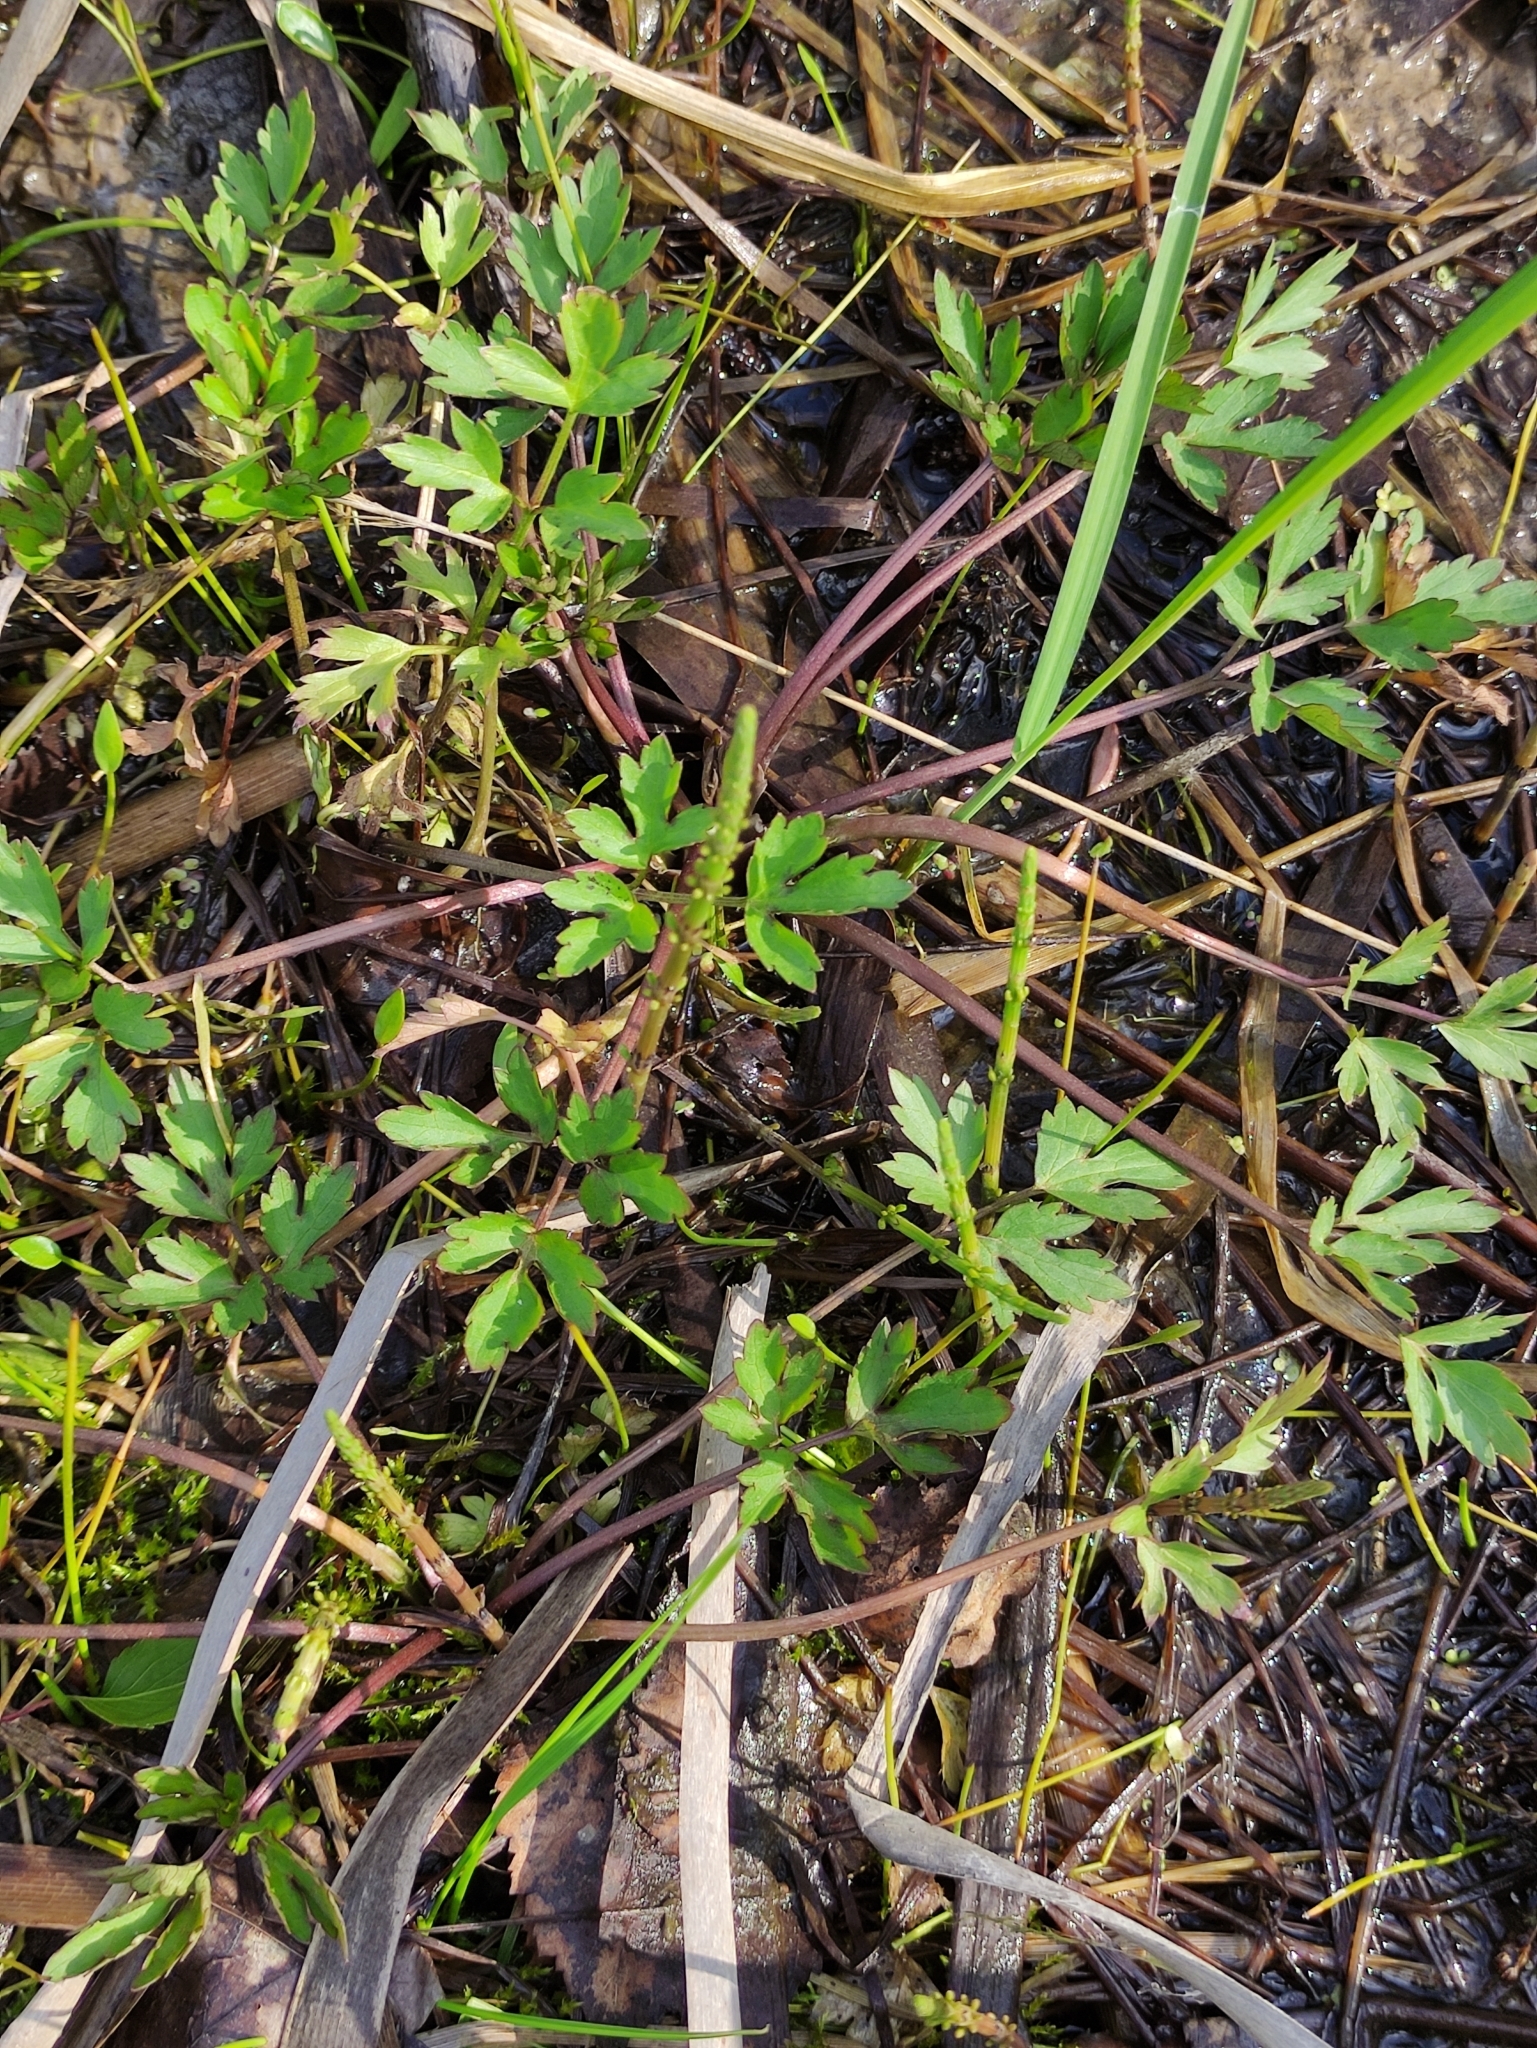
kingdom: Plantae
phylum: Tracheophyta
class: Magnoliopsida
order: Ranunculales
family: Ranunculaceae
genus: Ranunculus
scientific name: Ranunculus repens
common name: Creeping buttercup
